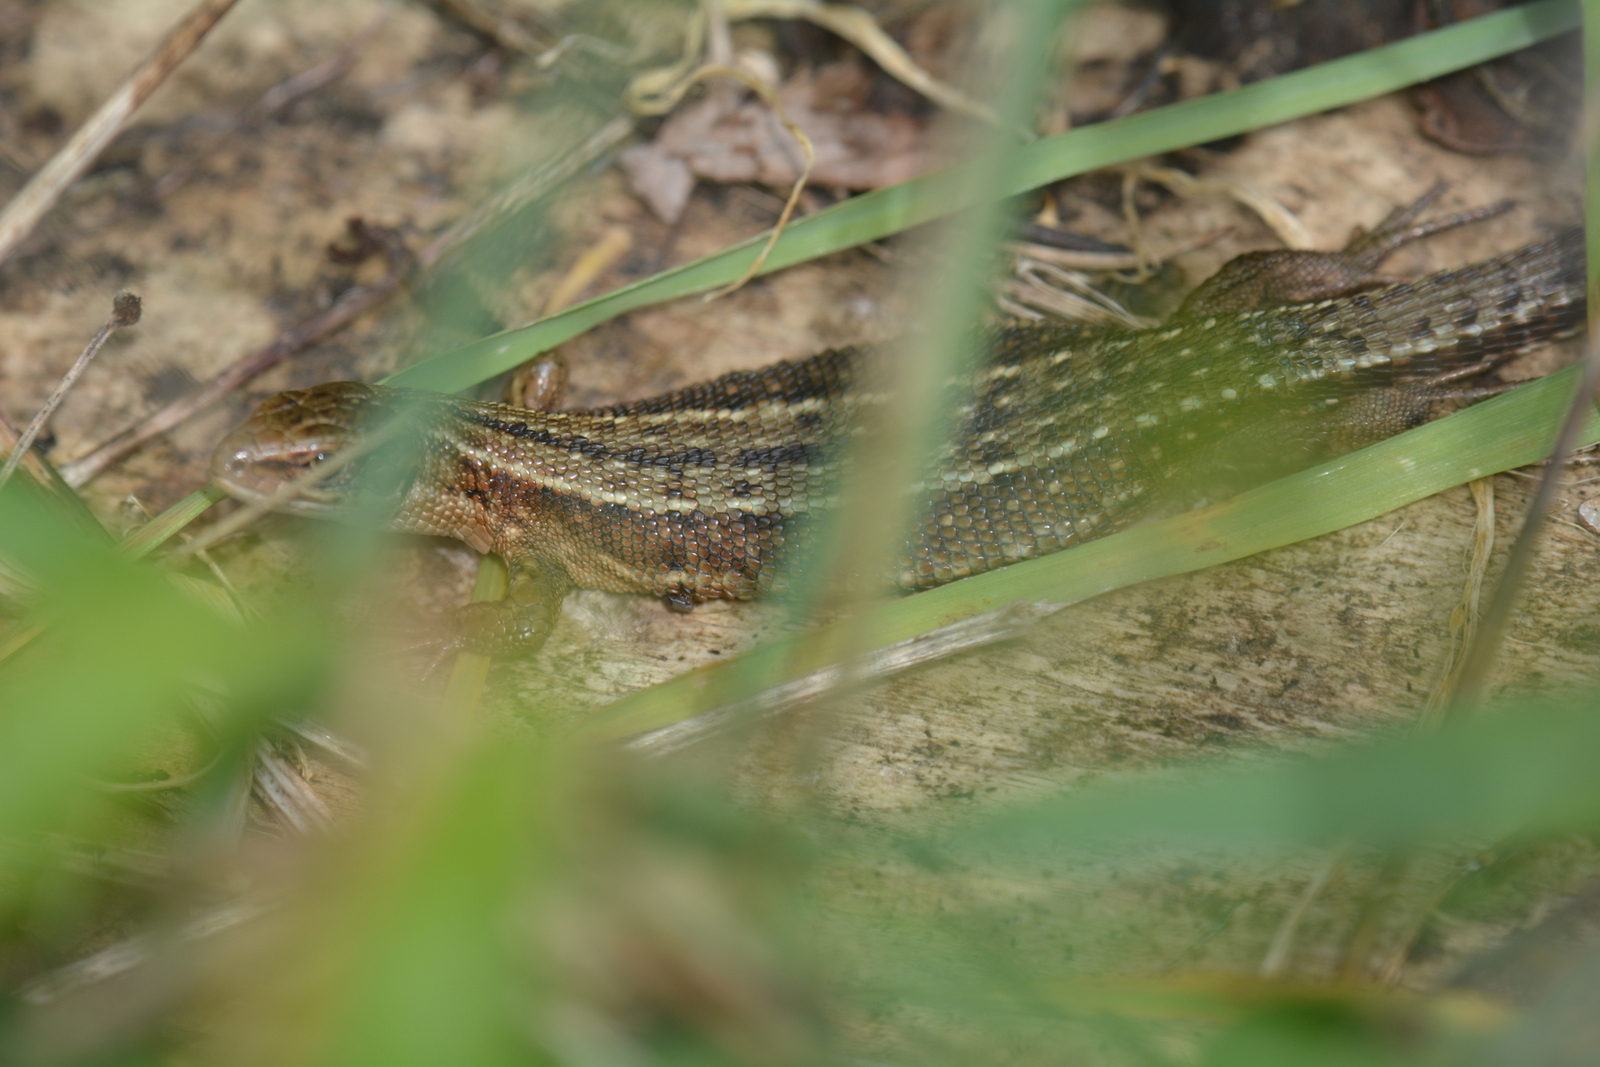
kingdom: Animalia
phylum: Chordata
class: Squamata
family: Lacertidae
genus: Zootoca
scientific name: Zootoca vivipara
